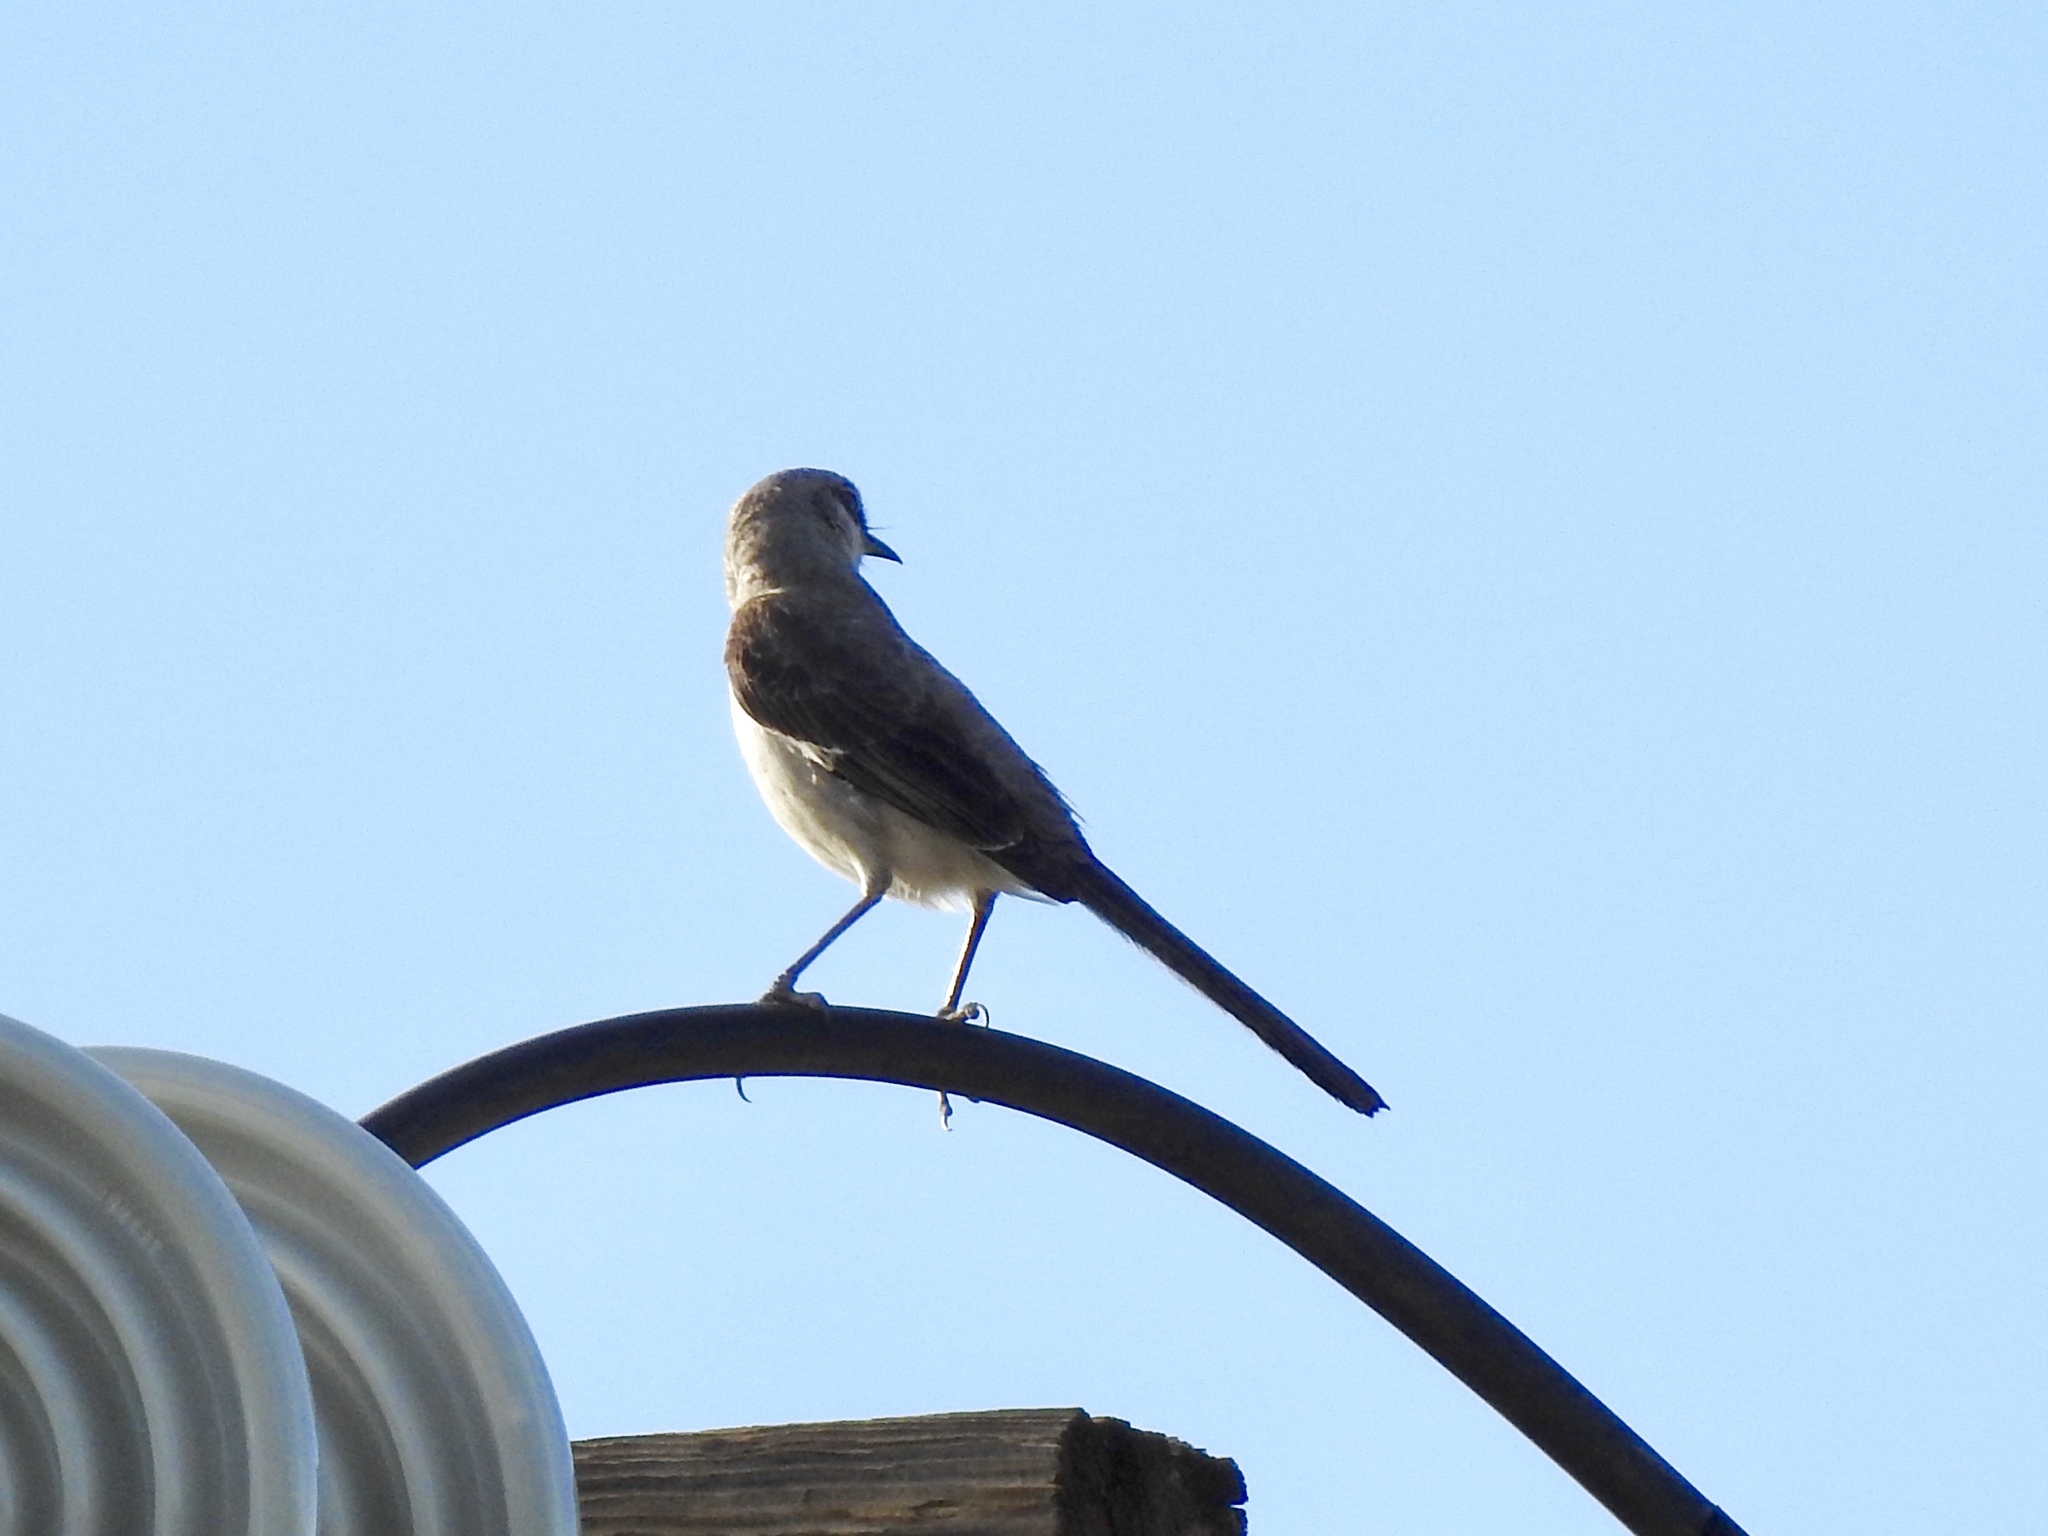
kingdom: Animalia
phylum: Chordata
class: Aves
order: Passeriformes
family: Mimidae
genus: Mimus
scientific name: Mimus polyglottos
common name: Northern mockingbird
